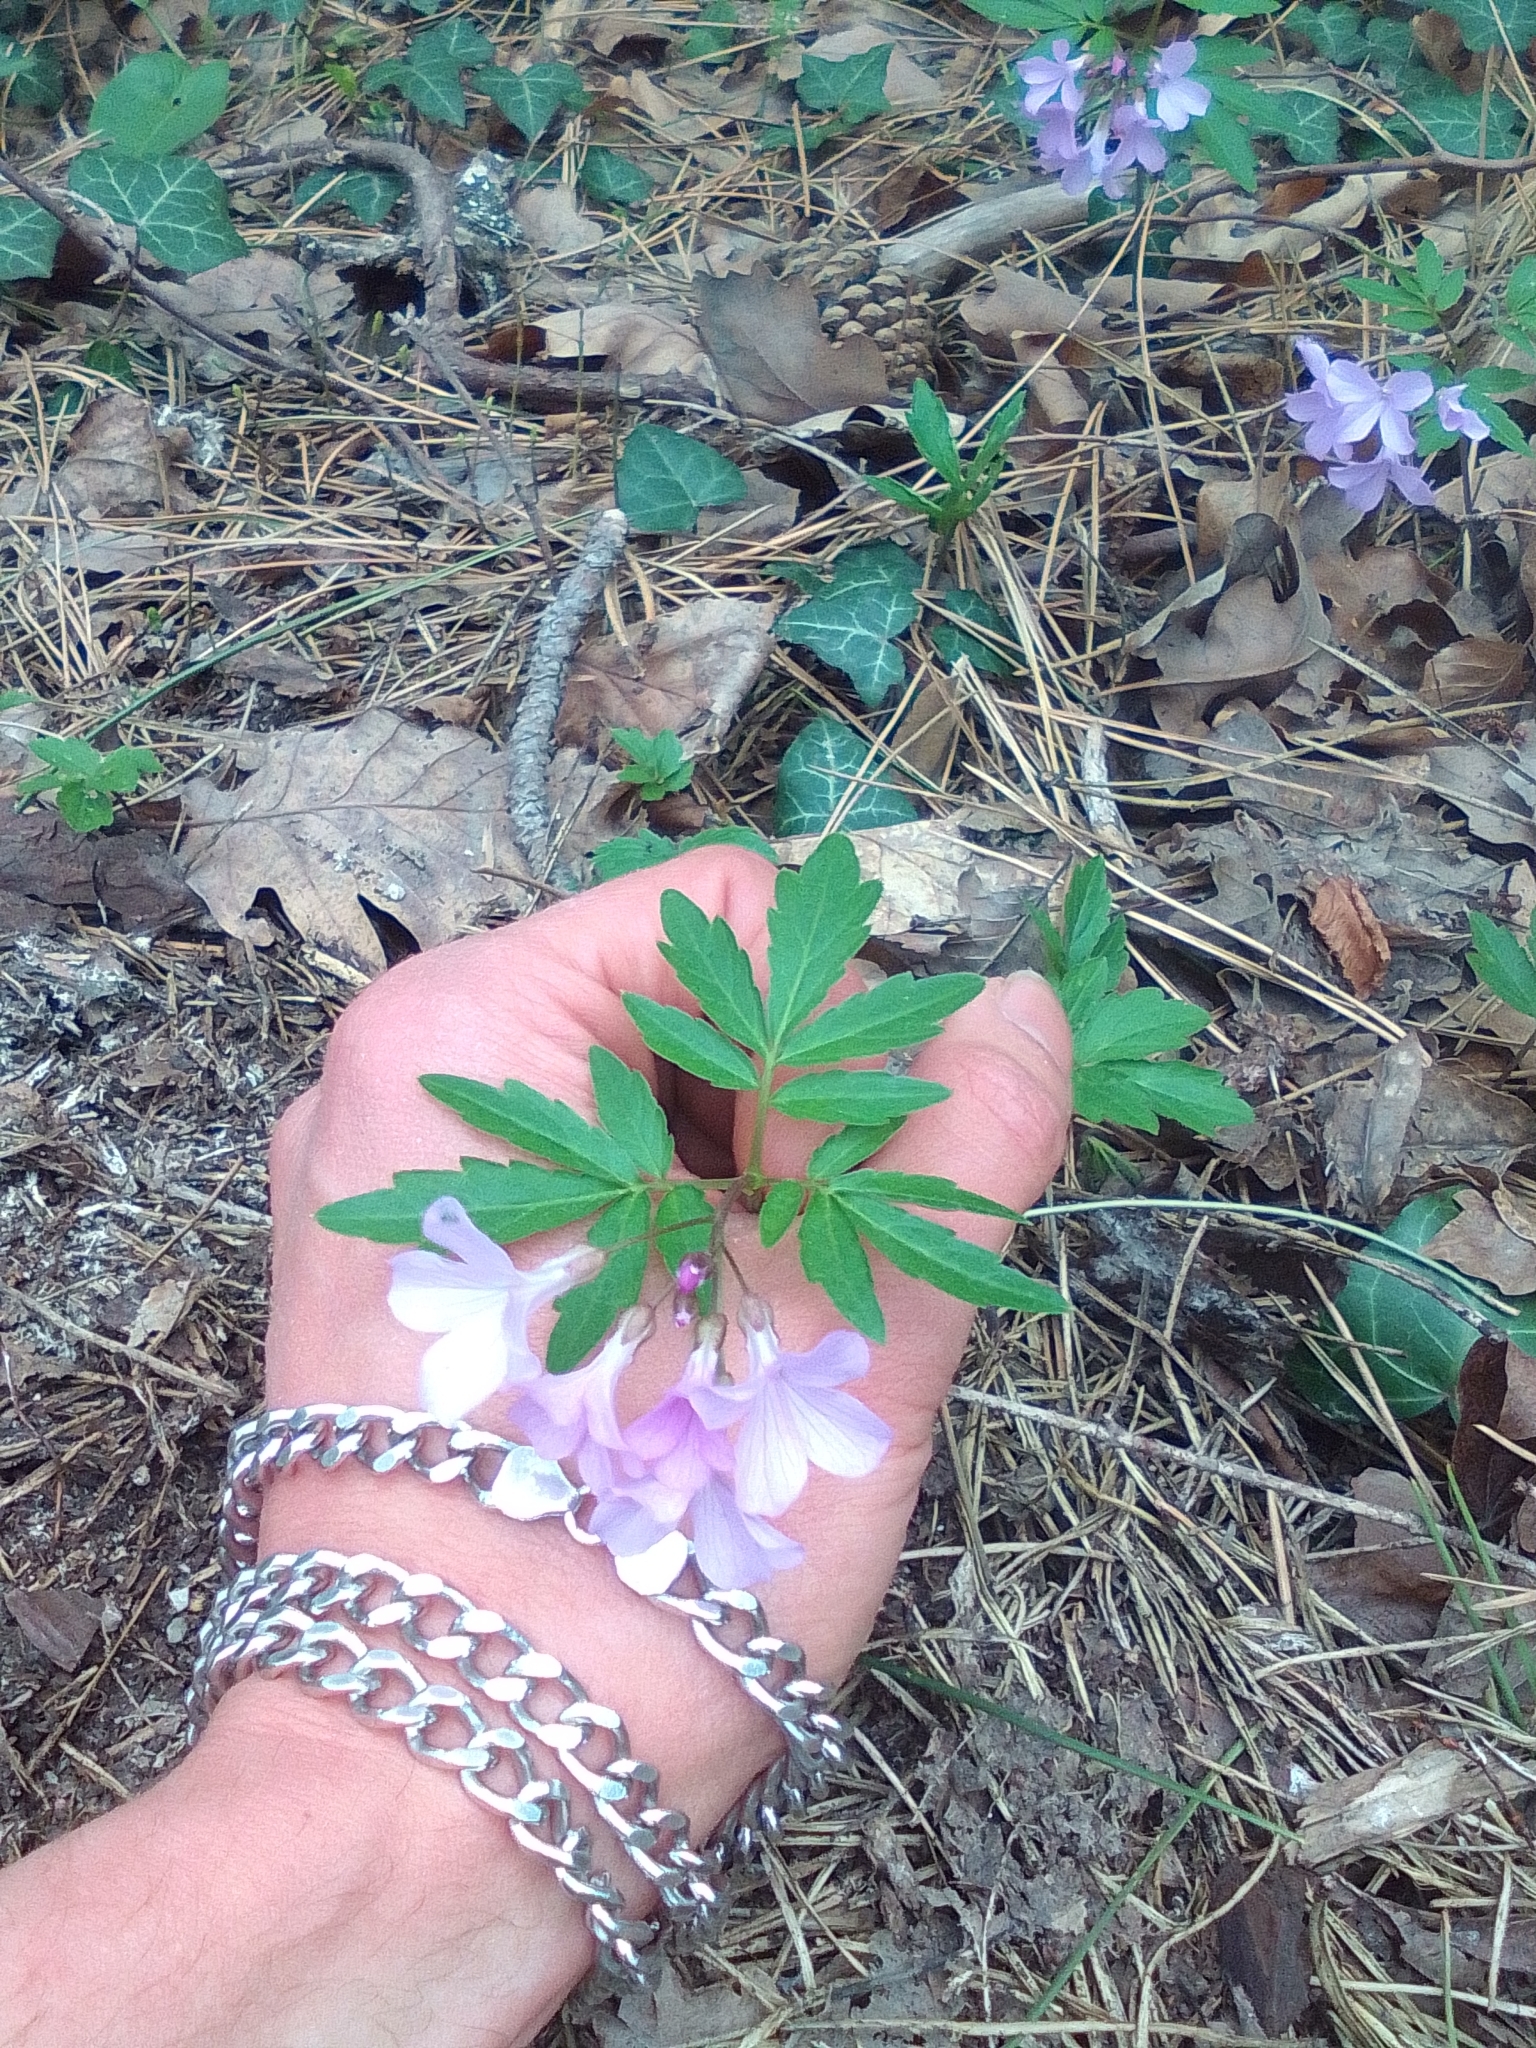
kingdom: Plantae
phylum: Tracheophyta
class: Magnoliopsida
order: Brassicales
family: Brassicaceae
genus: Cardamine
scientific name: Cardamine quinquefolia
